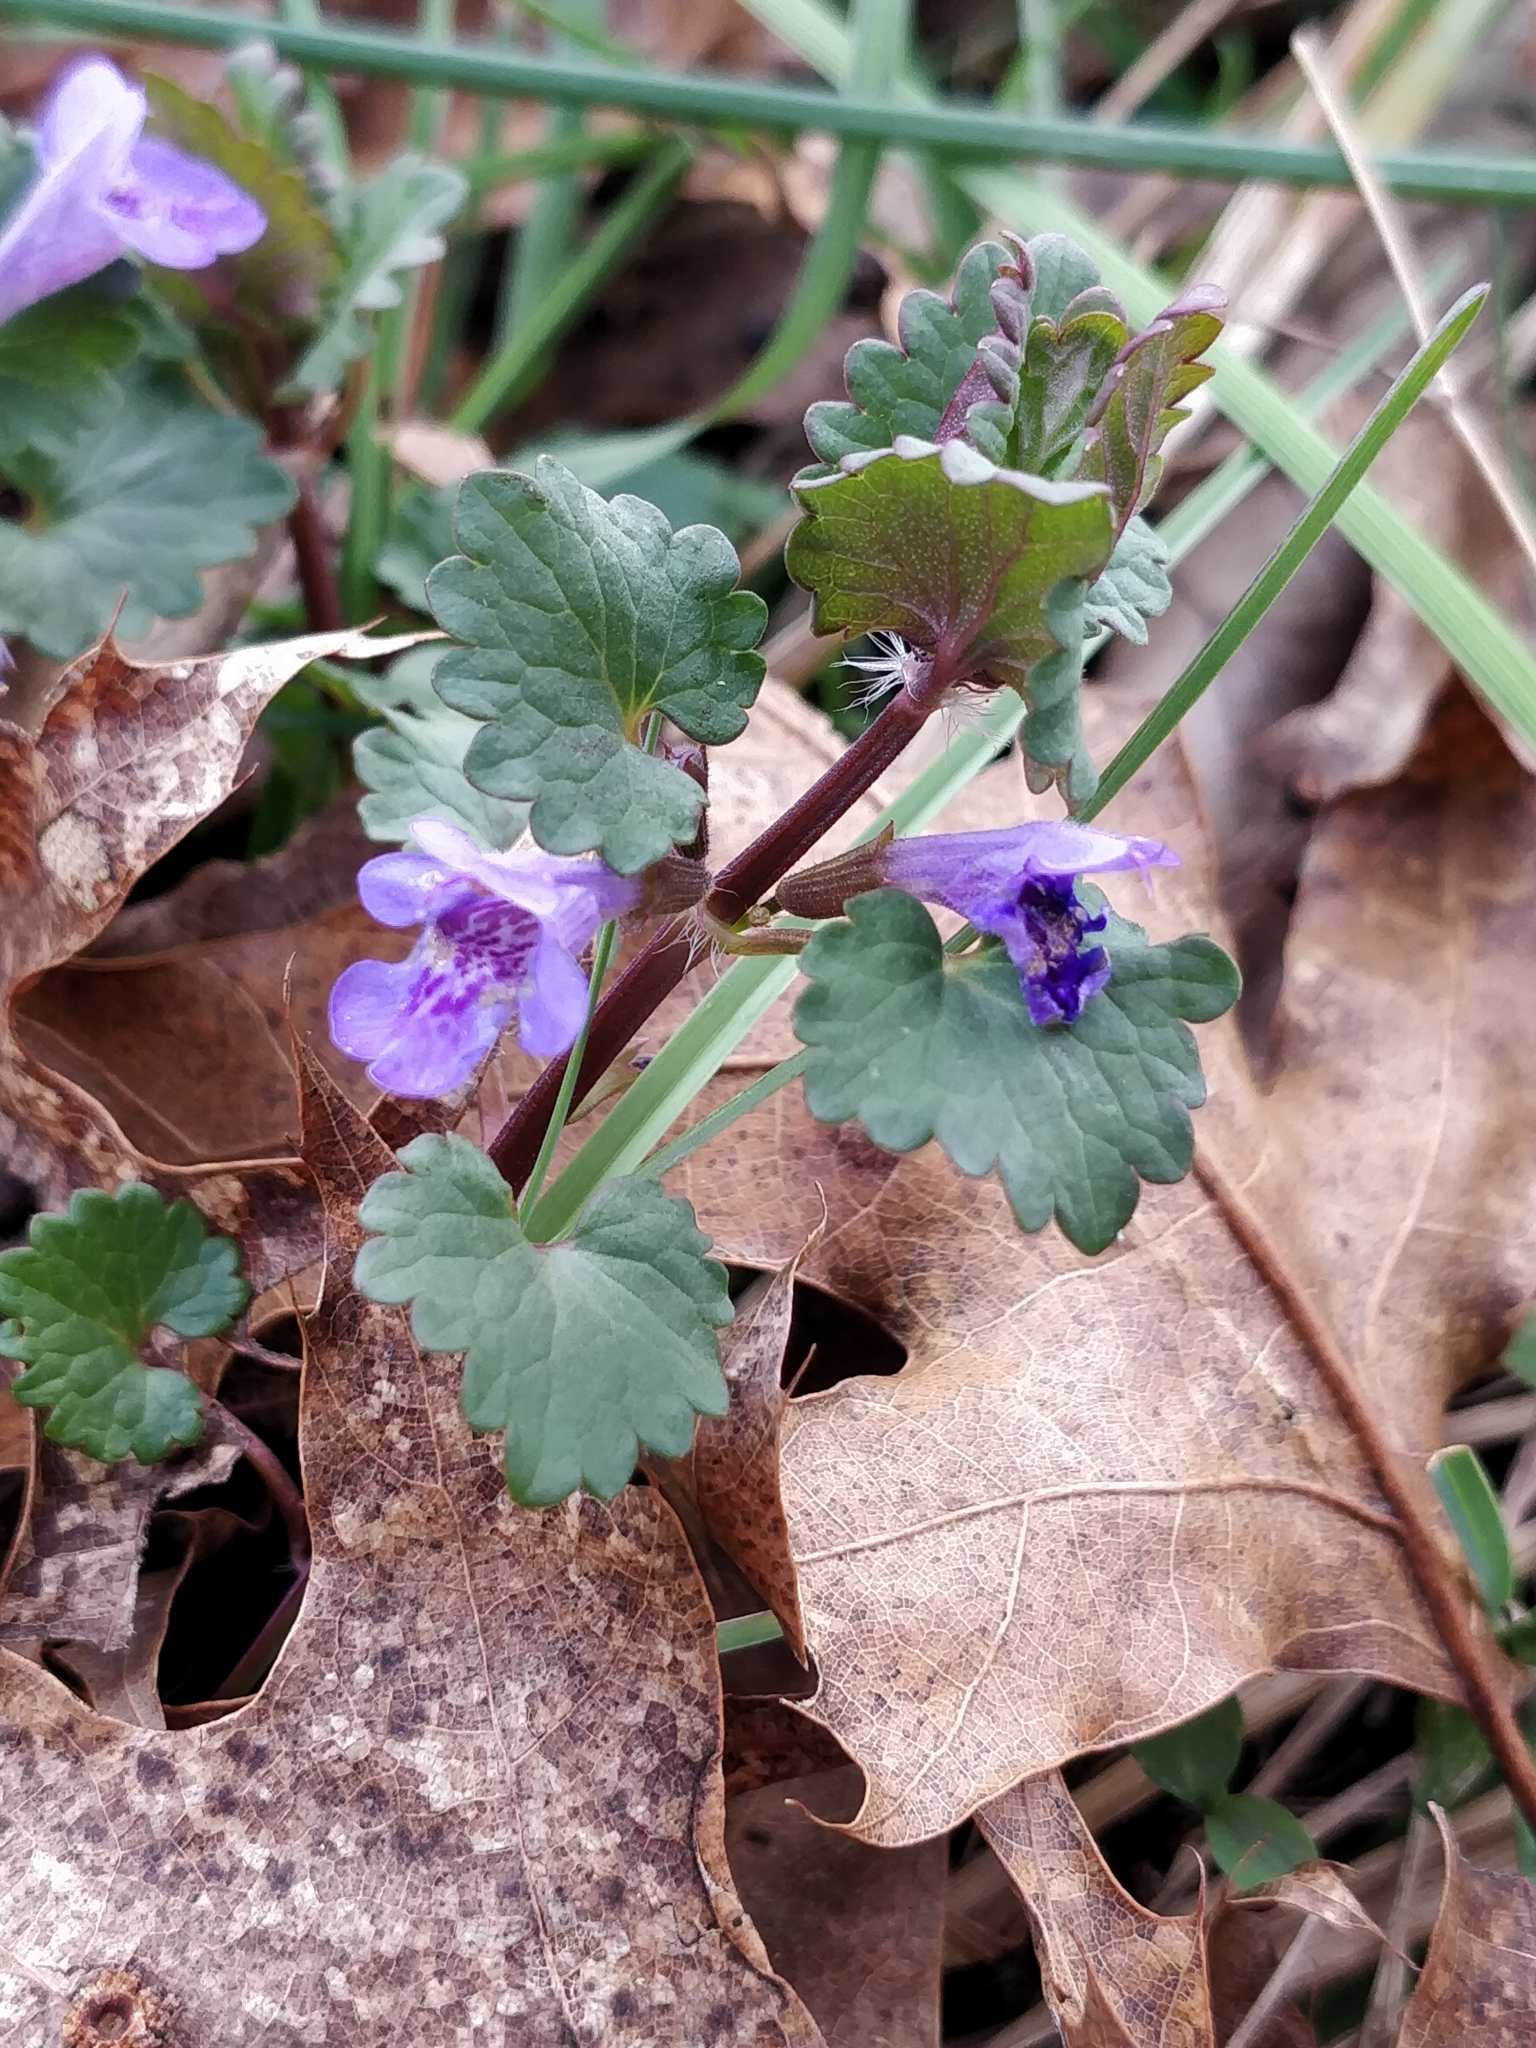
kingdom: Plantae
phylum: Tracheophyta
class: Magnoliopsida
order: Lamiales
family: Lamiaceae
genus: Glechoma
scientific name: Glechoma hederacea
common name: Ground ivy
